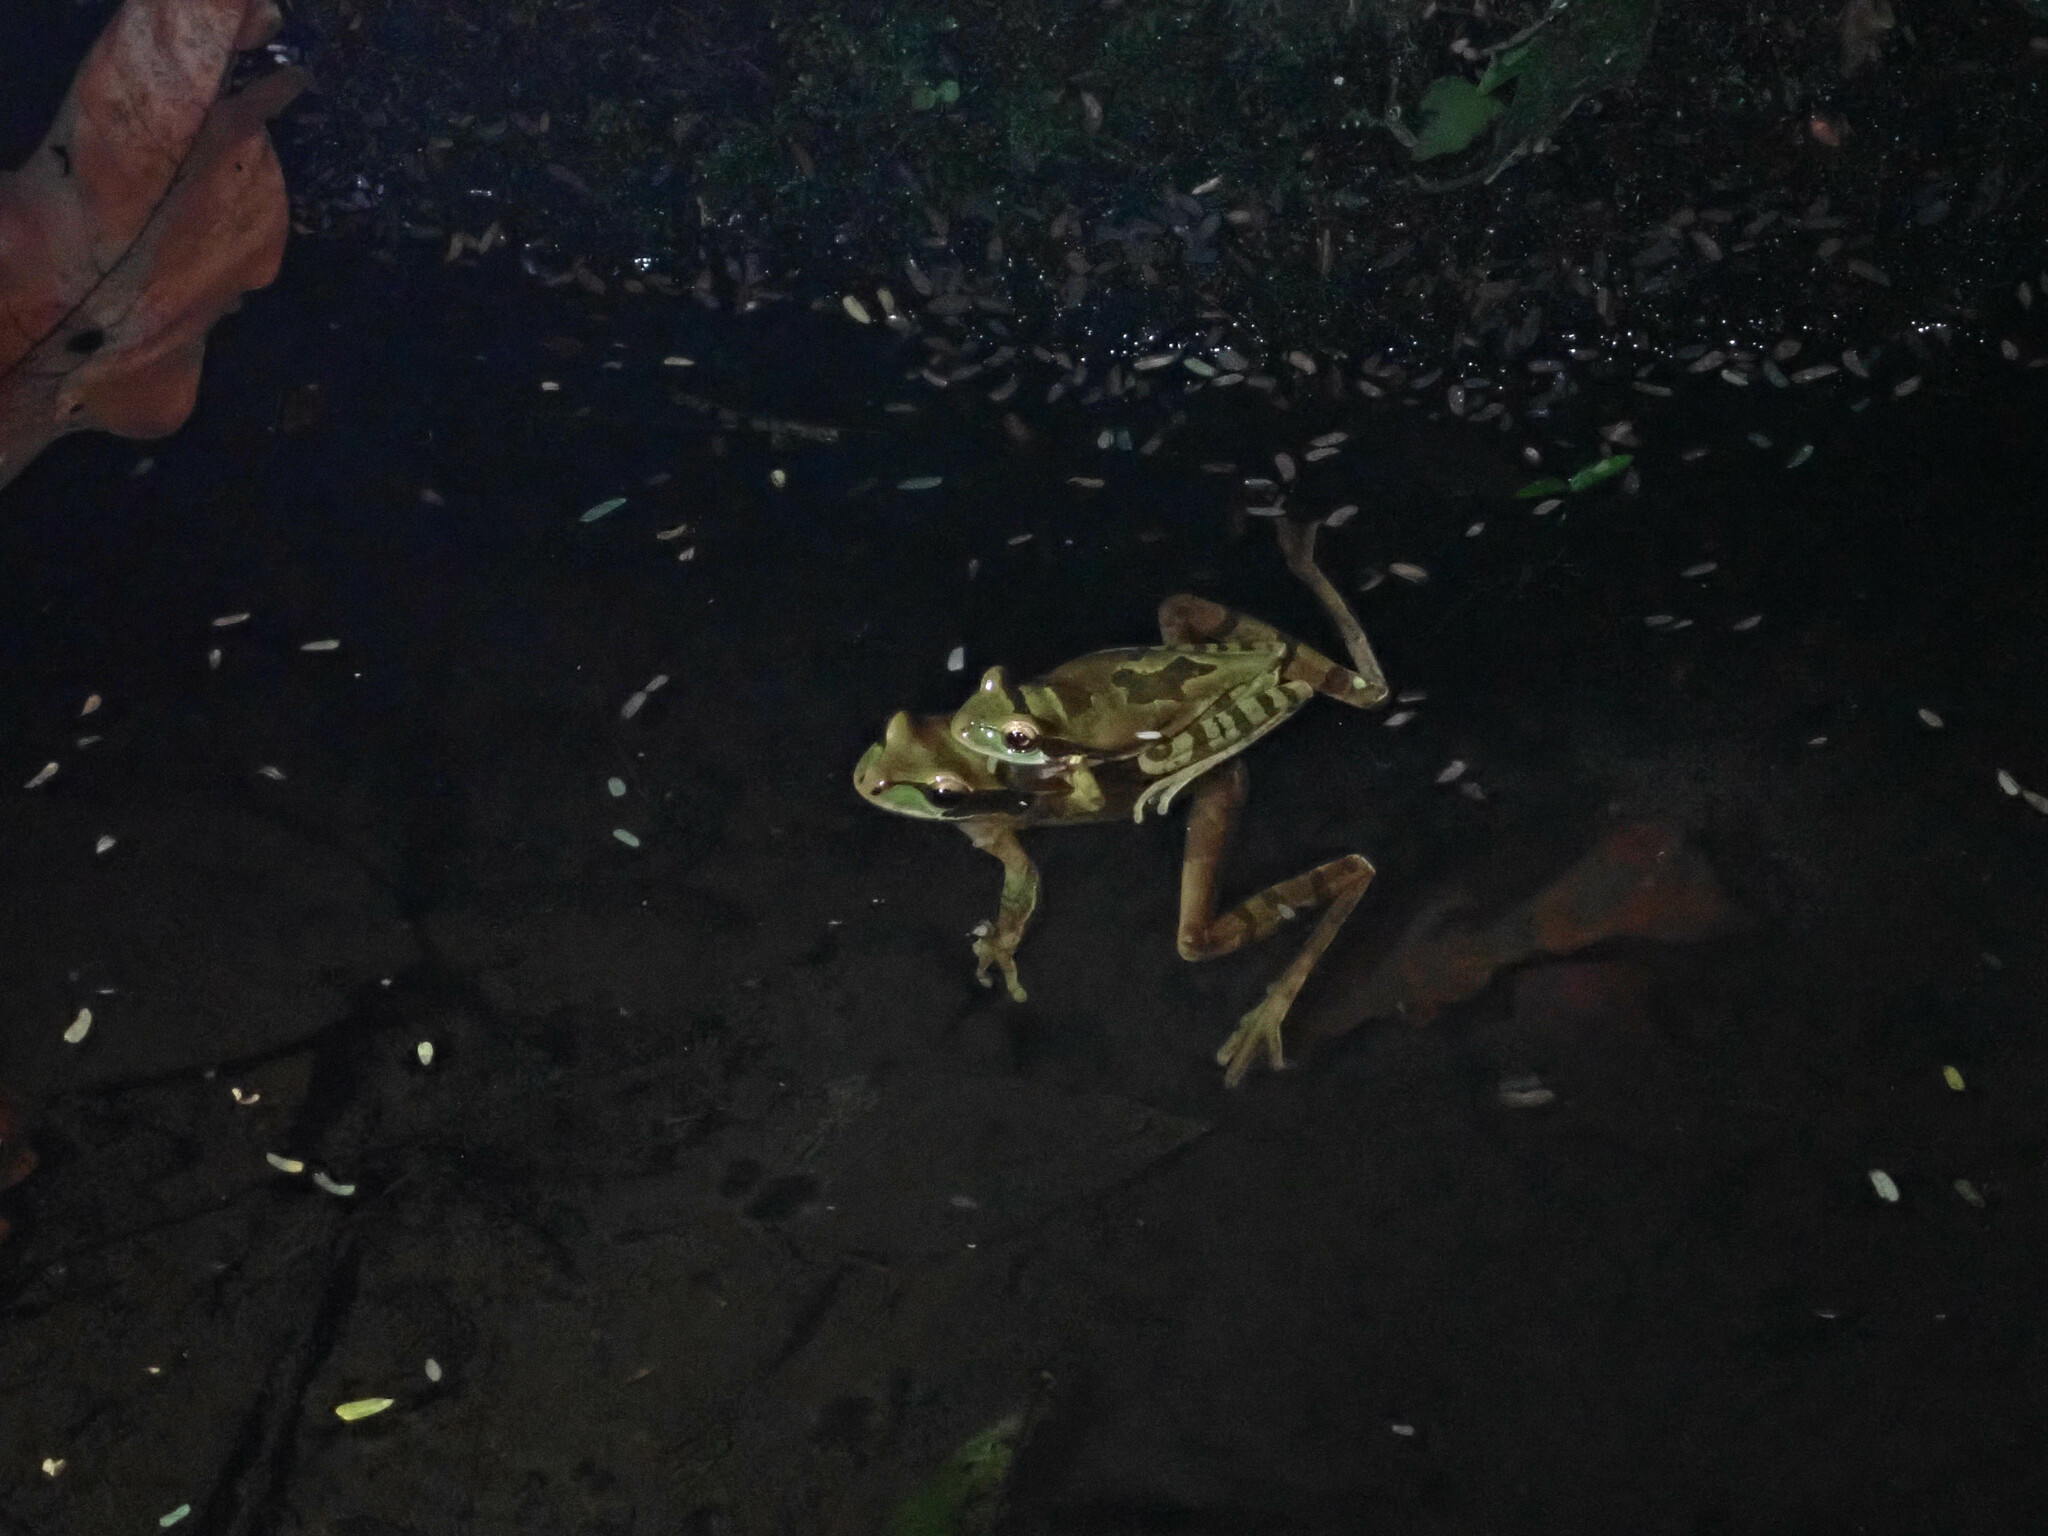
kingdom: Animalia
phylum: Chordata
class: Amphibia
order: Anura
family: Hylidae
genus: Smilisca
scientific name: Smilisca phaeota
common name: Central american smilisca
